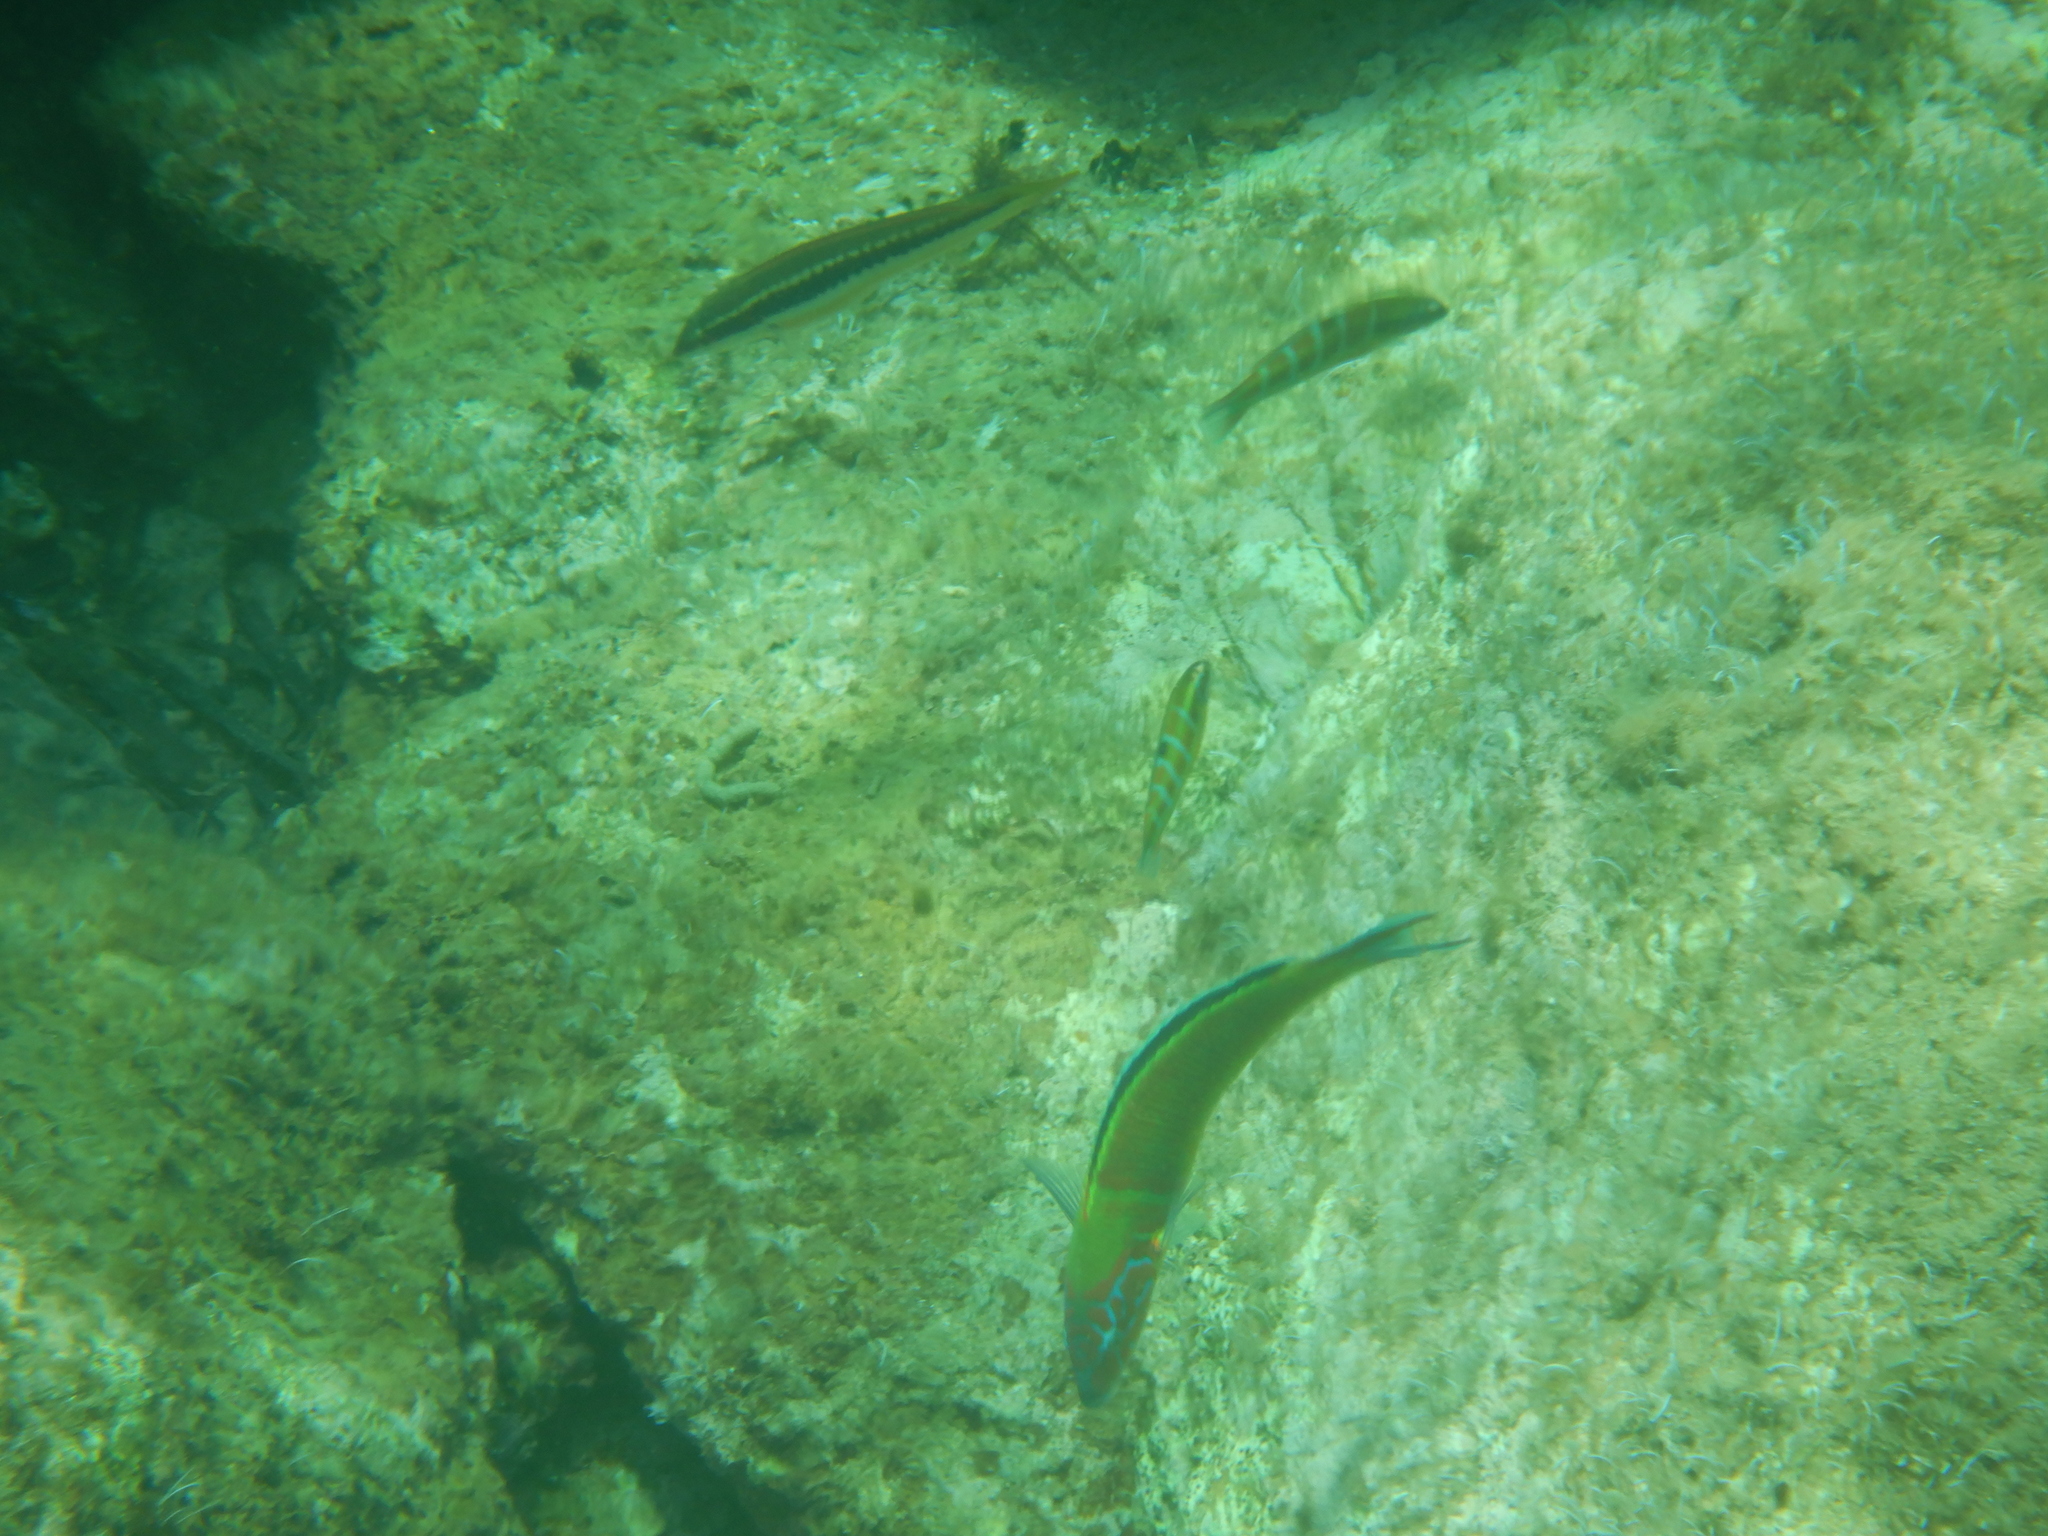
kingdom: Animalia
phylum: Chordata
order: Perciformes
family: Labridae
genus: Thalassoma
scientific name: Thalassoma pavo
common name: Ornate wrasse
